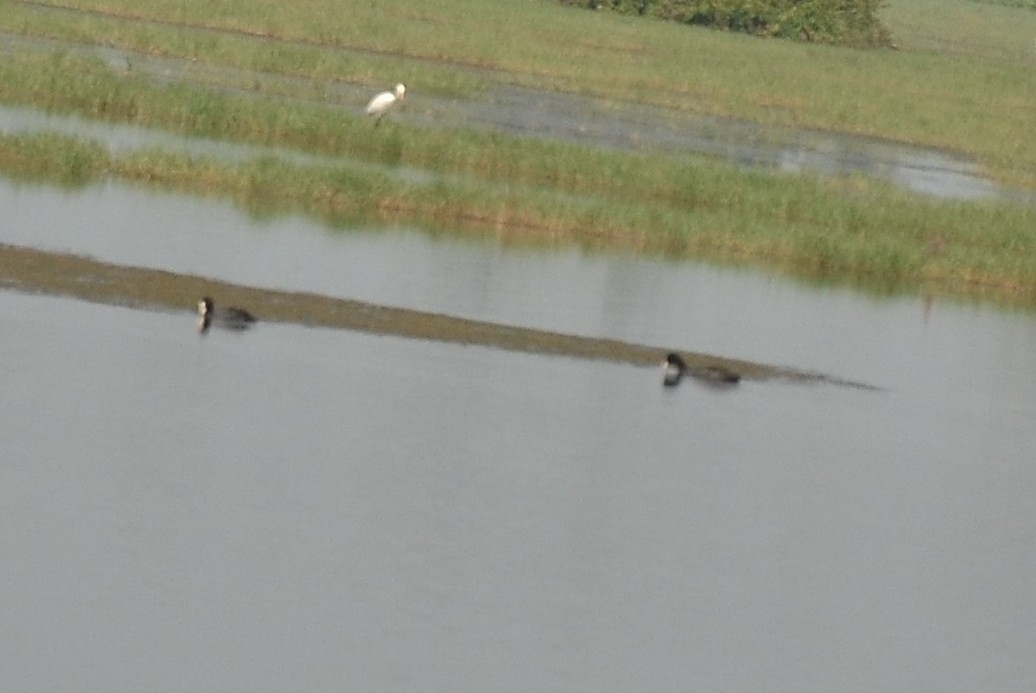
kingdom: Animalia
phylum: Chordata
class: Aves
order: Gruiformes
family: Rallidae
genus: Fulica
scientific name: Fulica atra
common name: Eurasian coot
